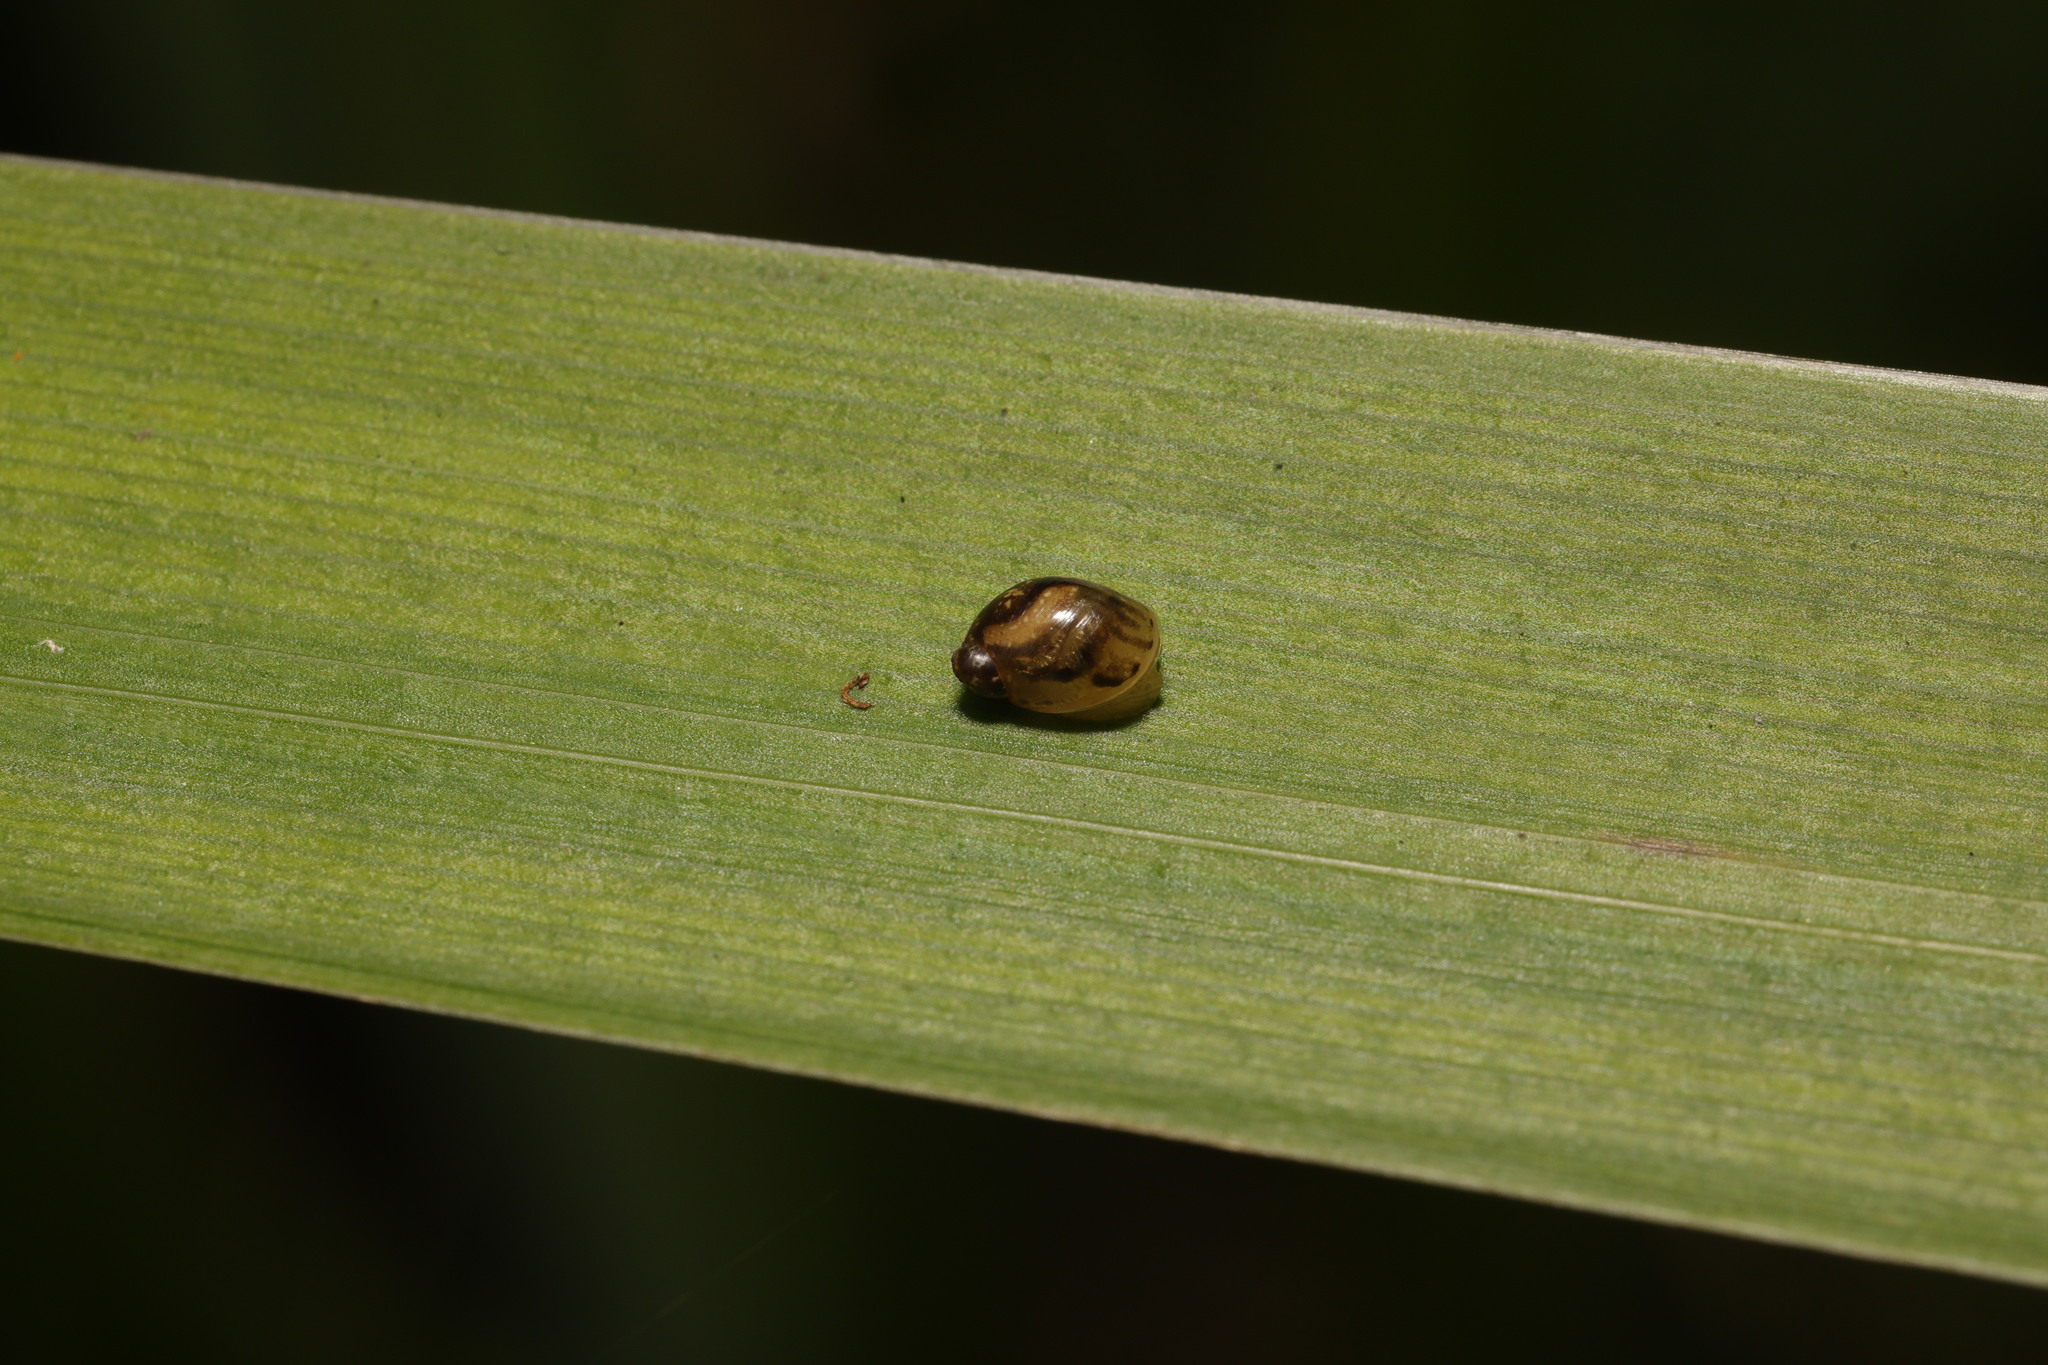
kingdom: Animalia
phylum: Mollusca
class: Gastropoda
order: Stylommatophora
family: Succineidae
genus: Succinea
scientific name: Succinea putris
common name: European ambersnail
